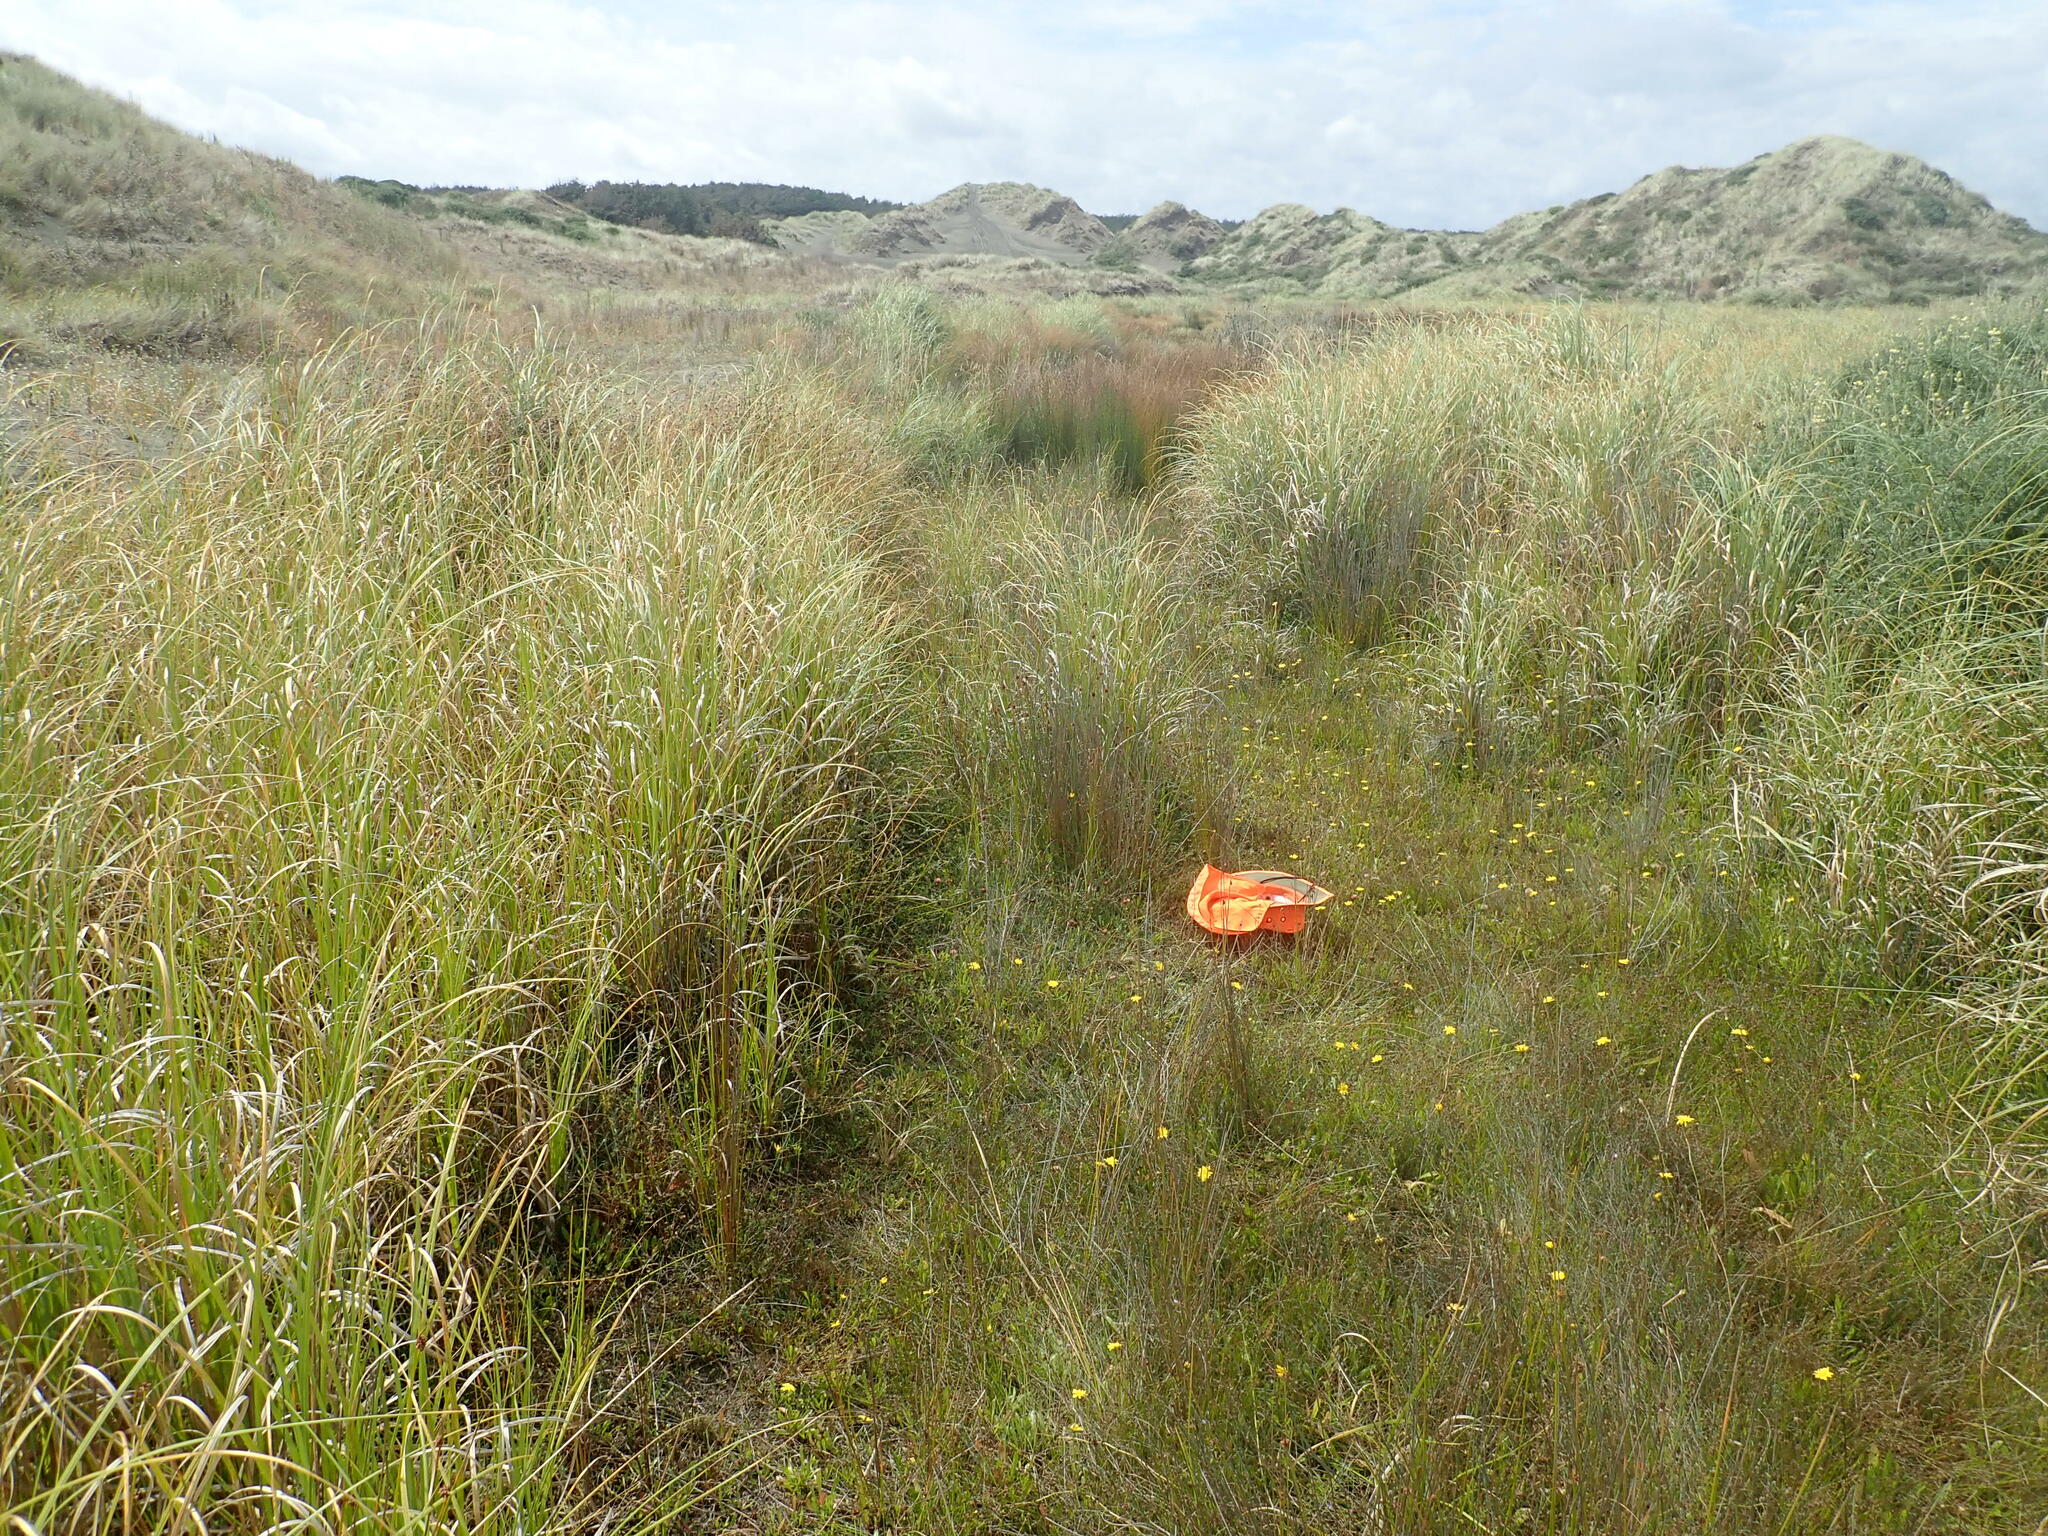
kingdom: Plantae
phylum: Tracheophyta
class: Magnoliopsida
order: Fabales
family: Fabaceae
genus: Trifolium
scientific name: Trifolium fragiferum
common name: Strawberry clover
